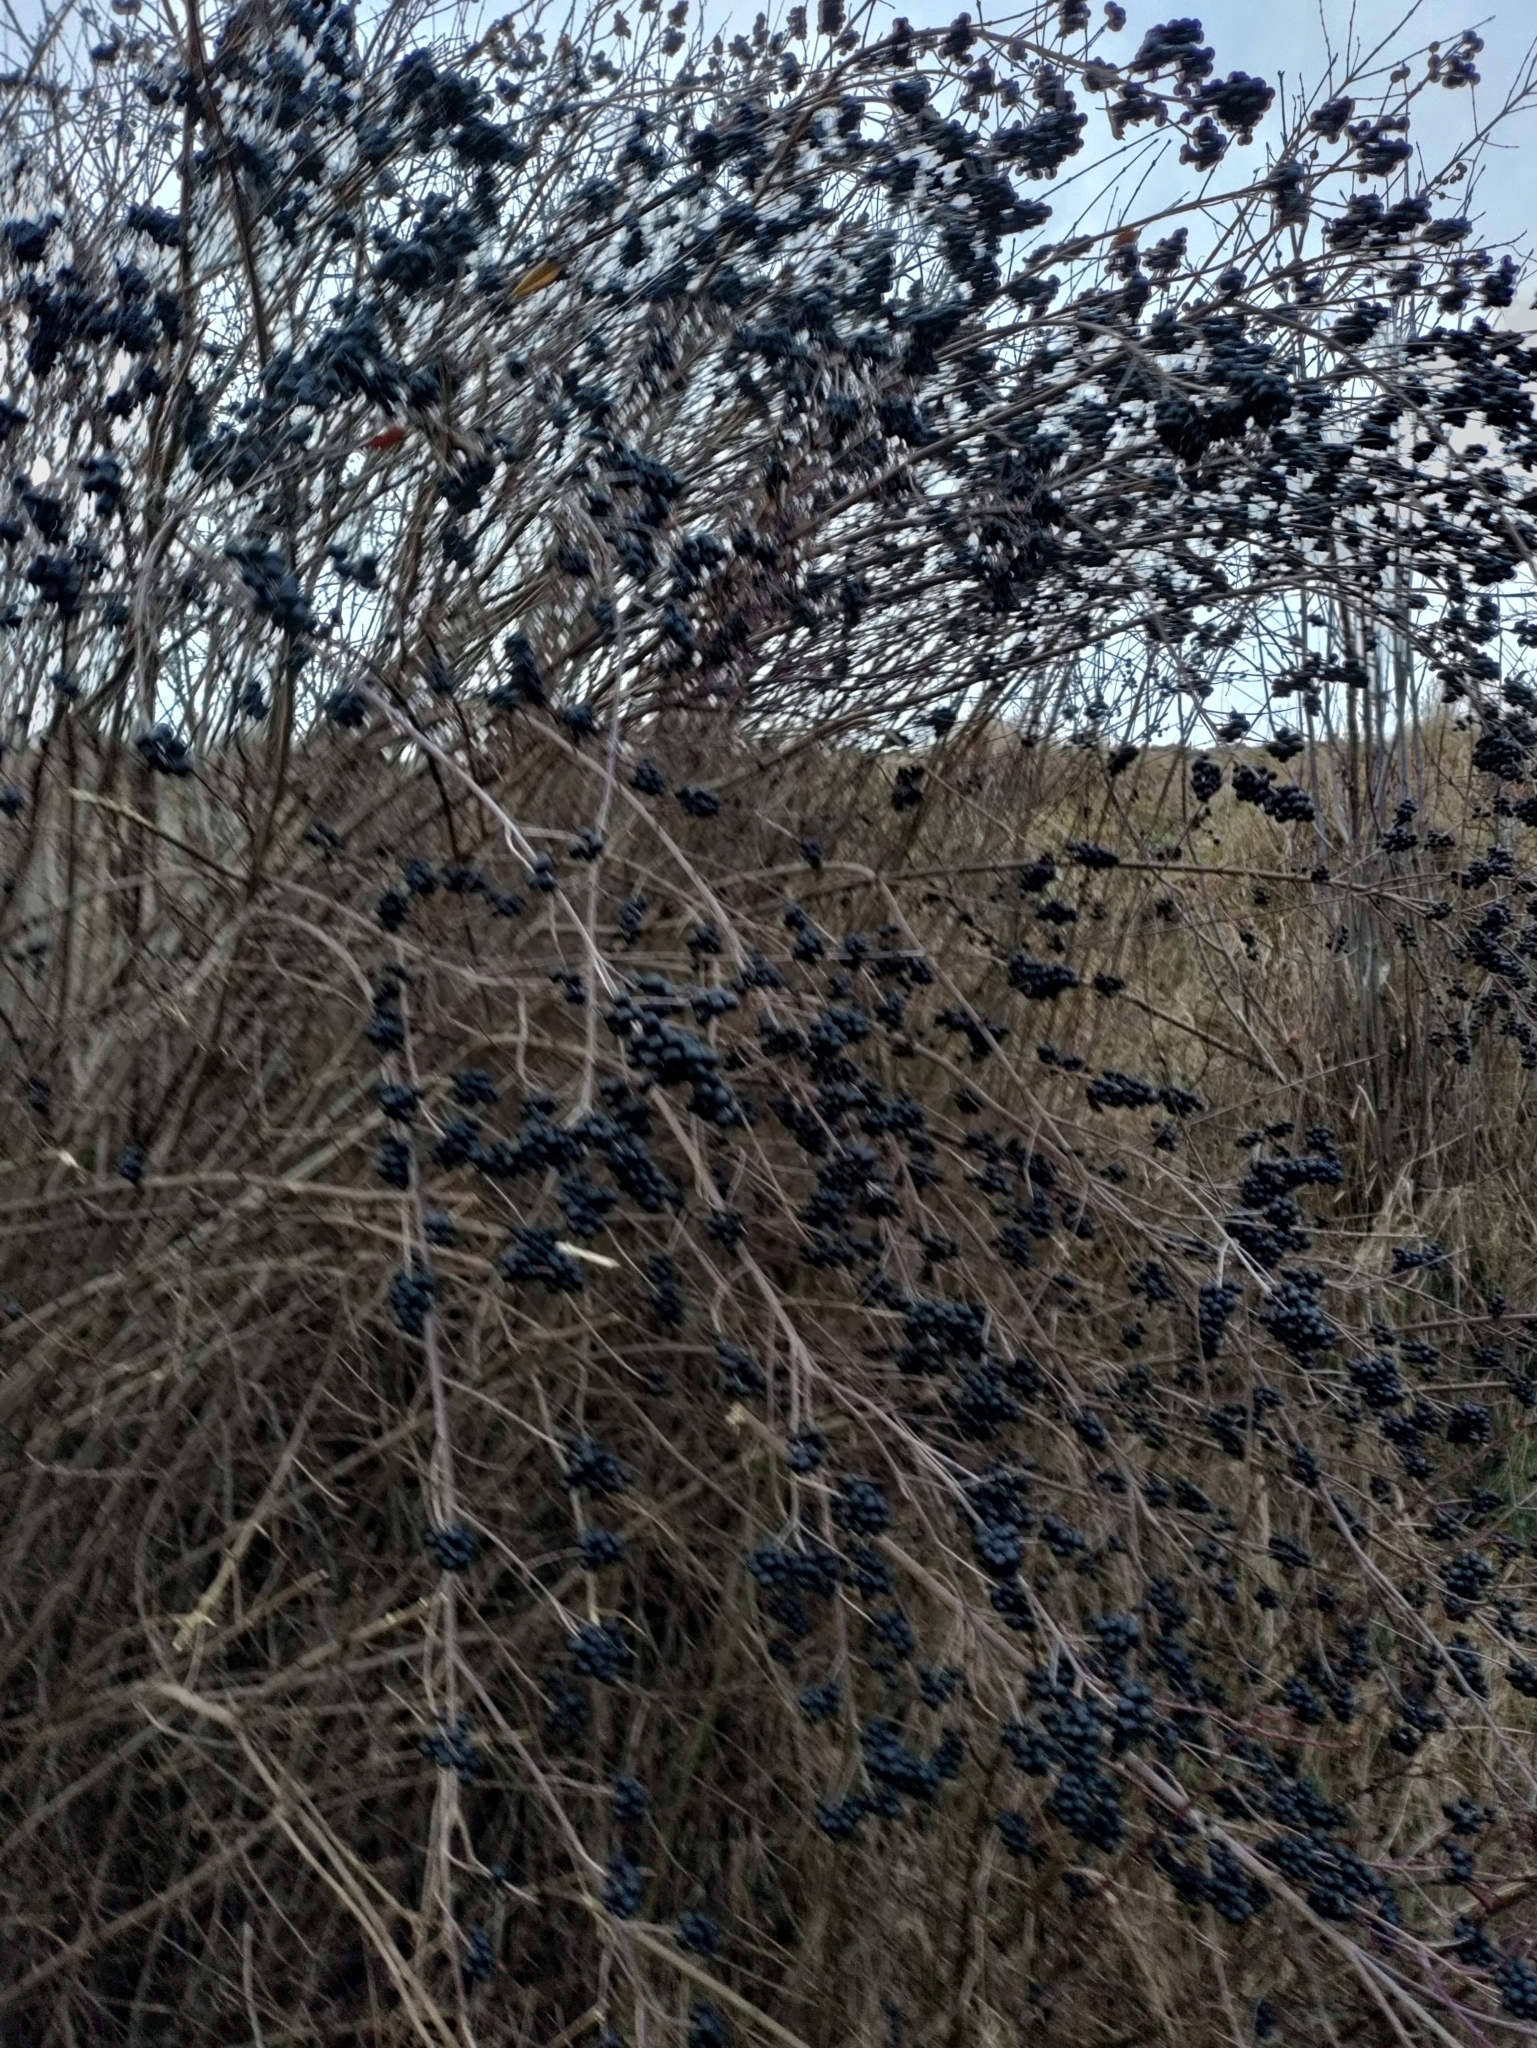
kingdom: Plantae
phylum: Tracheophyta
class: Magnoliopsida
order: Lamiales
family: Oleaceae
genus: Ligustrum
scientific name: Ligustrum vulgare
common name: Wild privet
